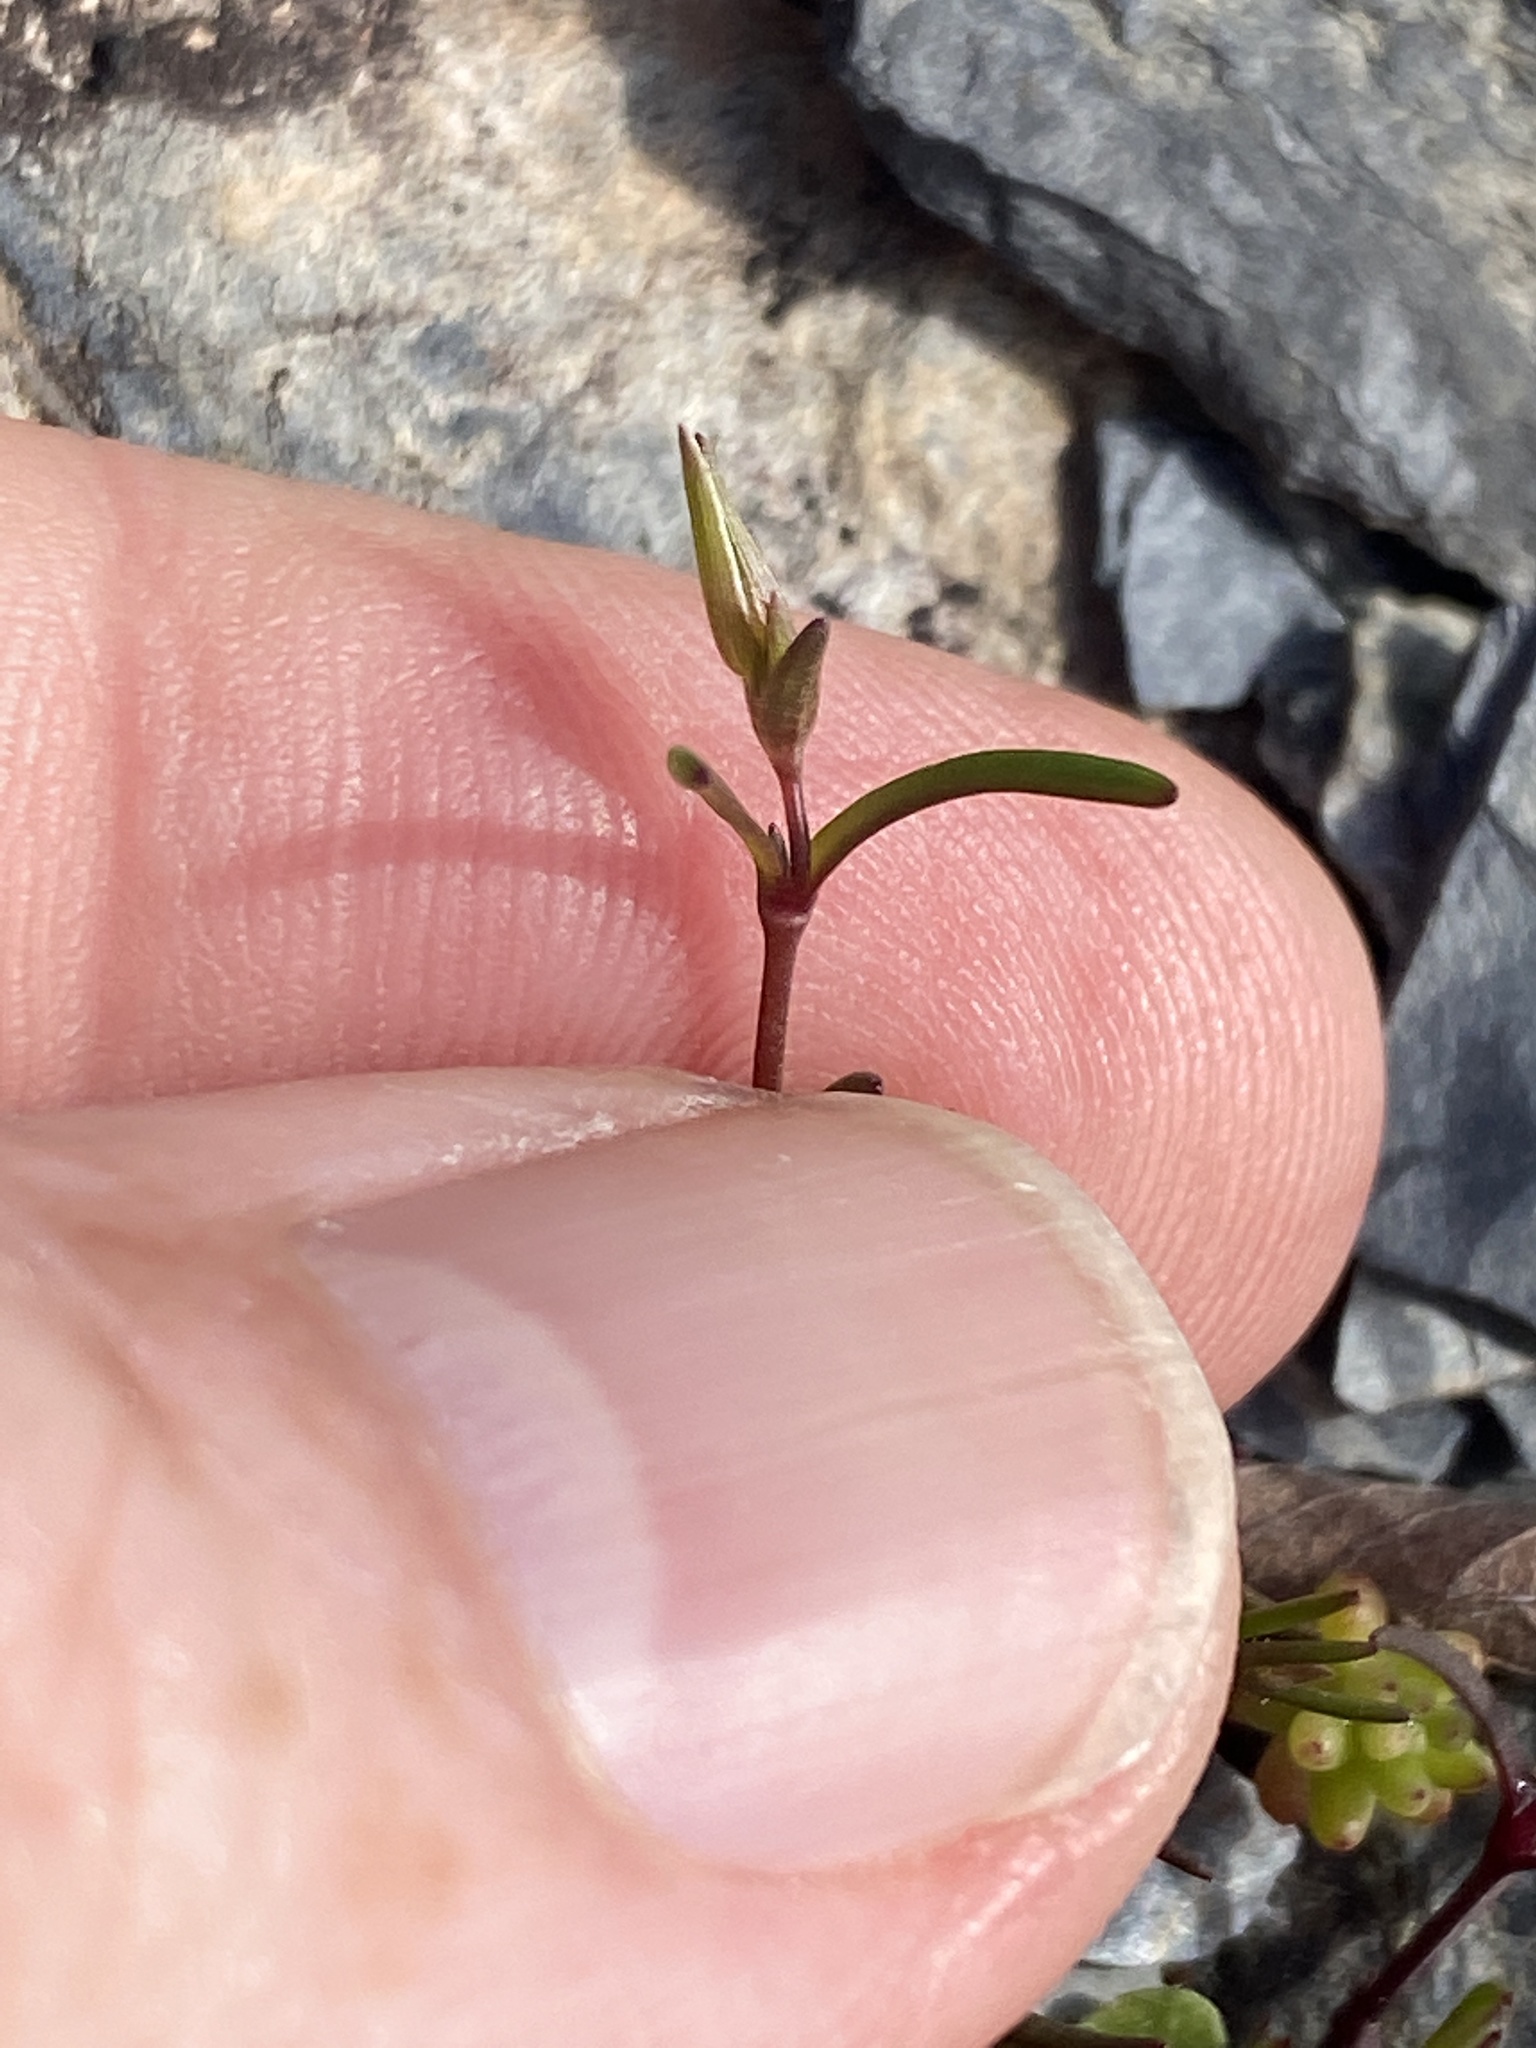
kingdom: Plantae
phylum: Tracheophyta
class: Magnoliopsida
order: Caryophyllales
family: Caryophyllaceae
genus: Mononeuria
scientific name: Mononeuria patula
